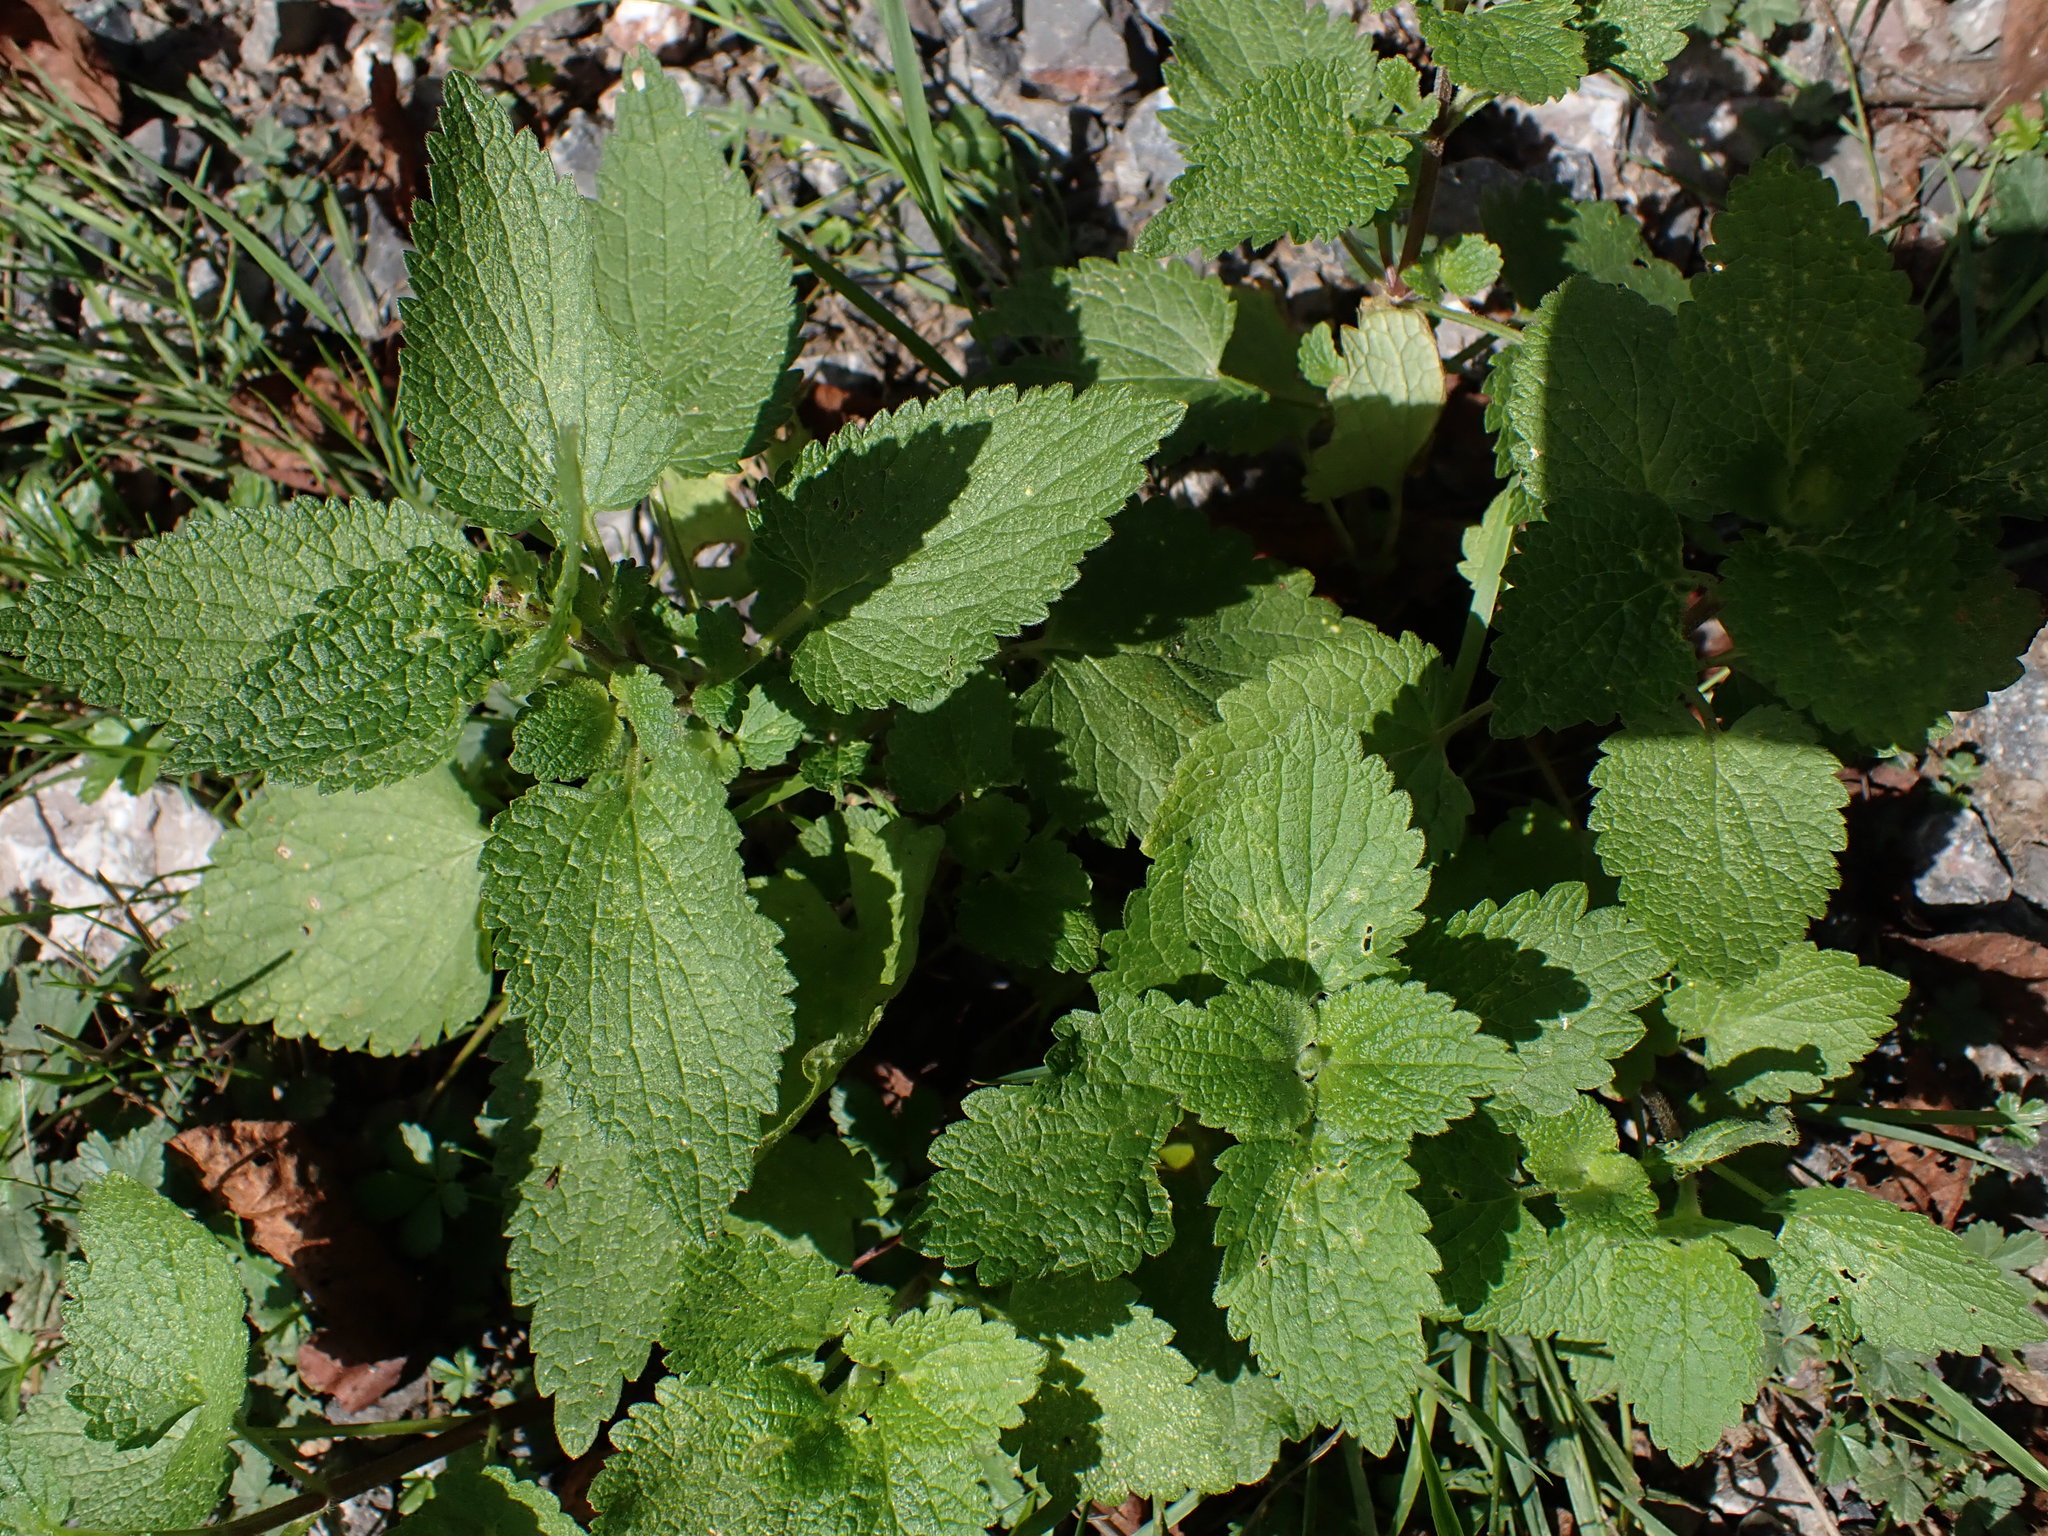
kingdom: Plantae
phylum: Tracheophyta
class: Magnoliopsida
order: Lamiales
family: Lamiaceae
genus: Stachys
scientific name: Stachys sylvatica
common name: Hedge woundwort
